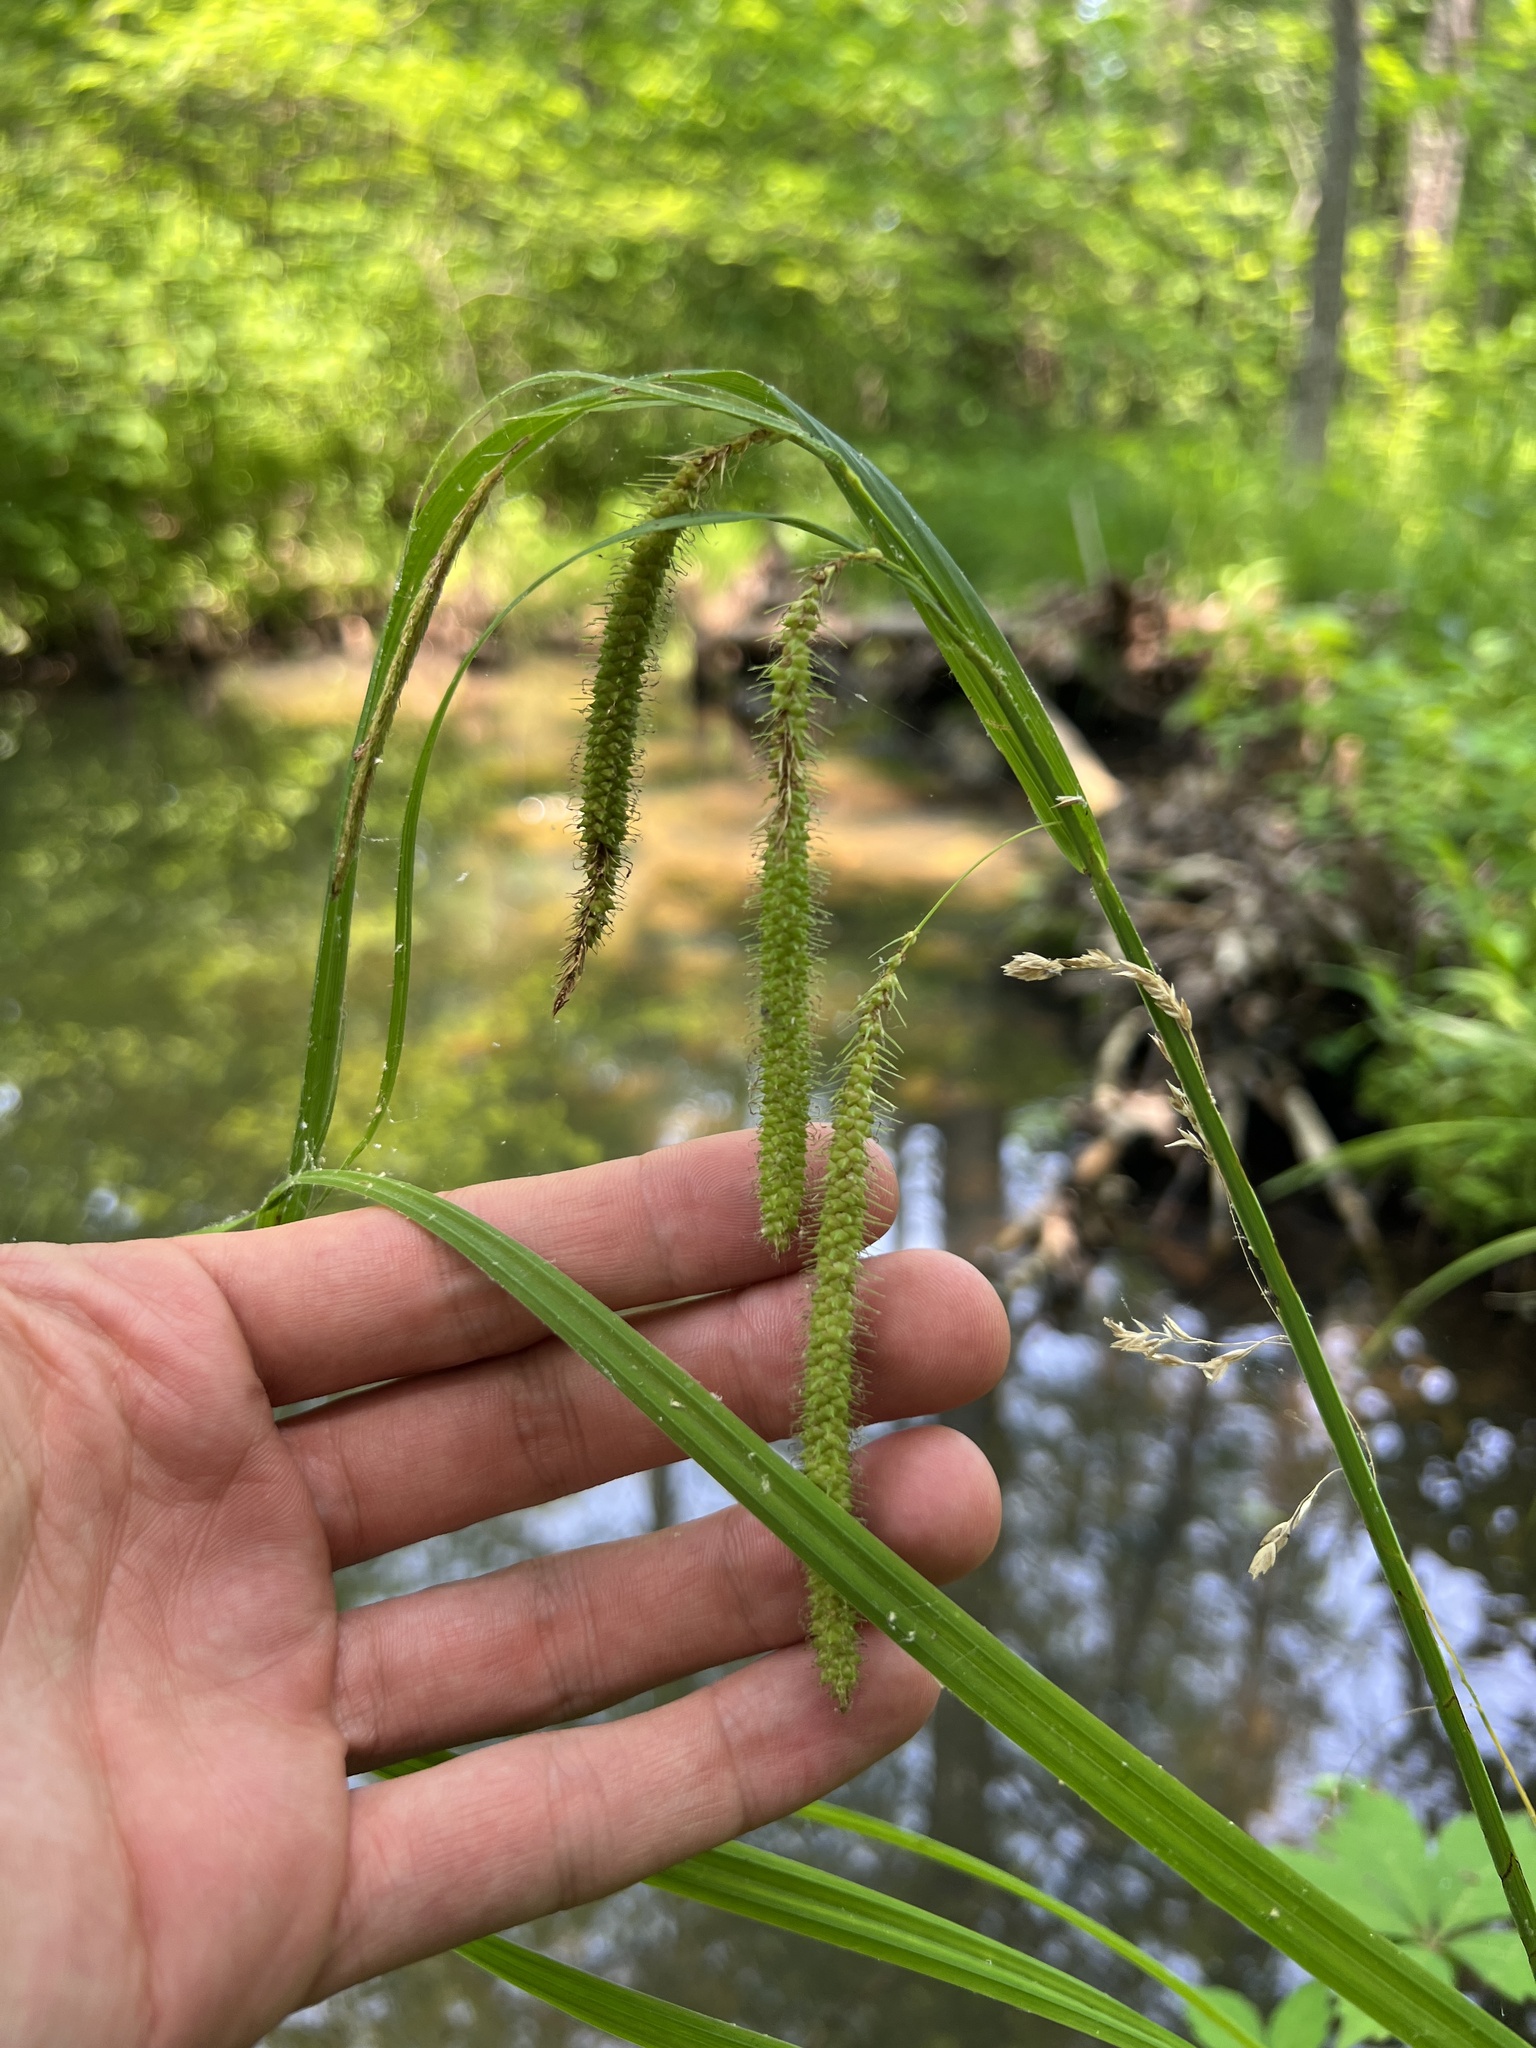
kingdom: Plantae
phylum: Tracheophyta
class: Liliopsida
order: Poales
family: Cyperaceae
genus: Carex
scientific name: Carex crinita
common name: Fringed sedge
